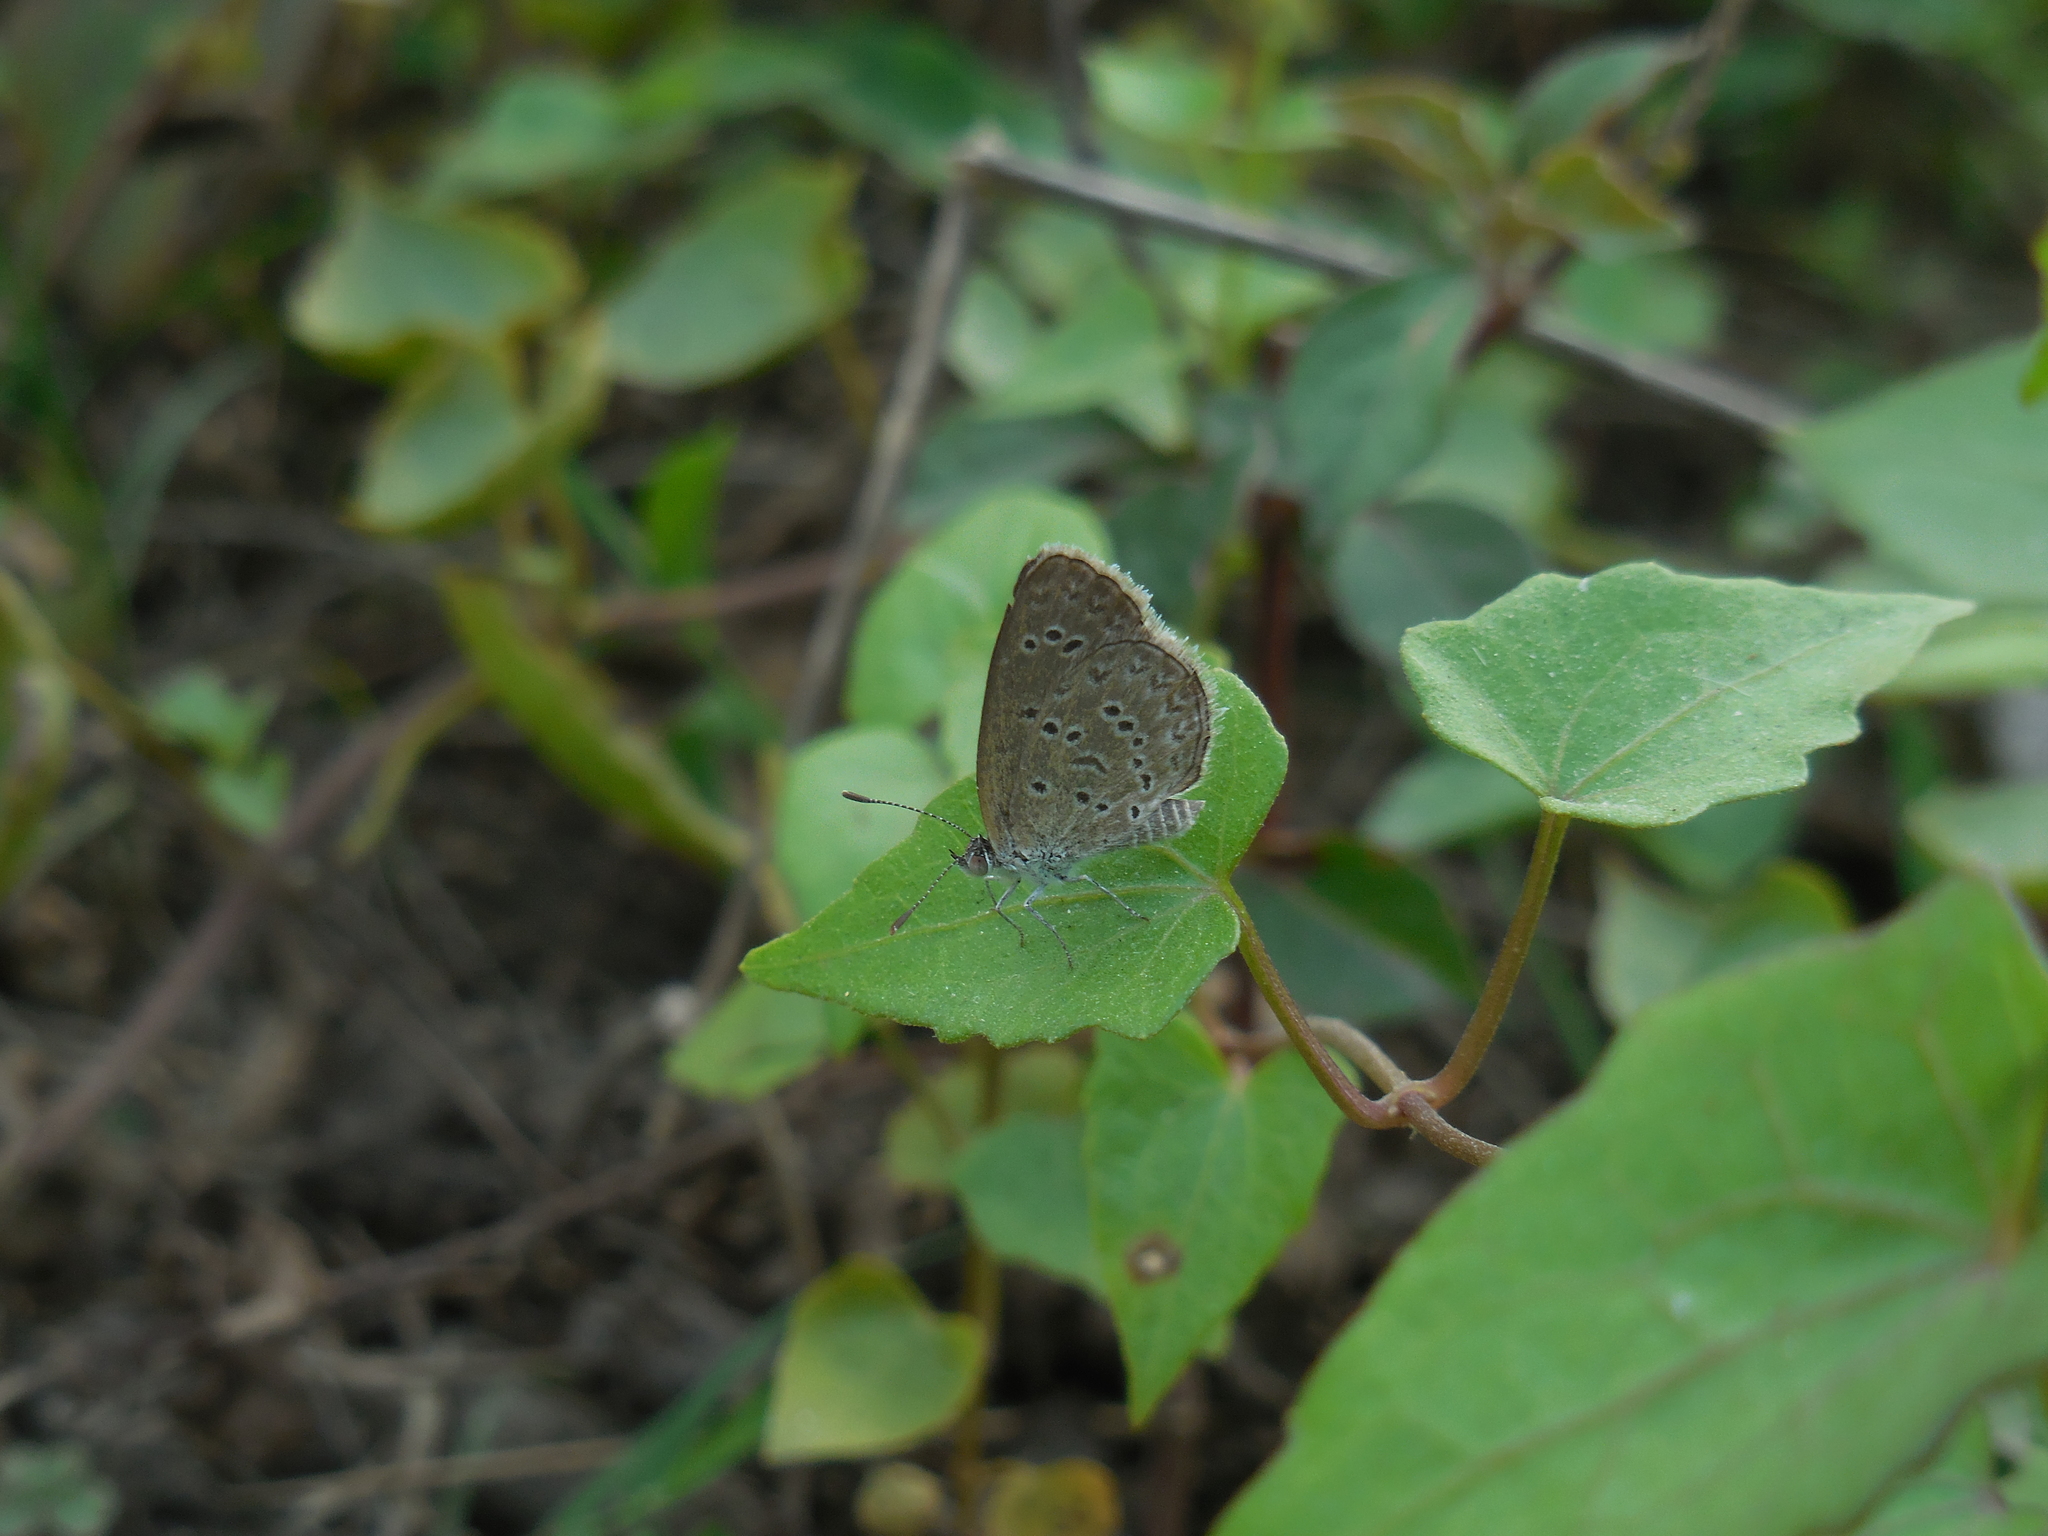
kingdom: Animalia
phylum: Arthropoda
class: Insecta
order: Lepidoptera
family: Lycaenidae
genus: Zizina
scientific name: Zizina otis
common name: Lesser grass blue
